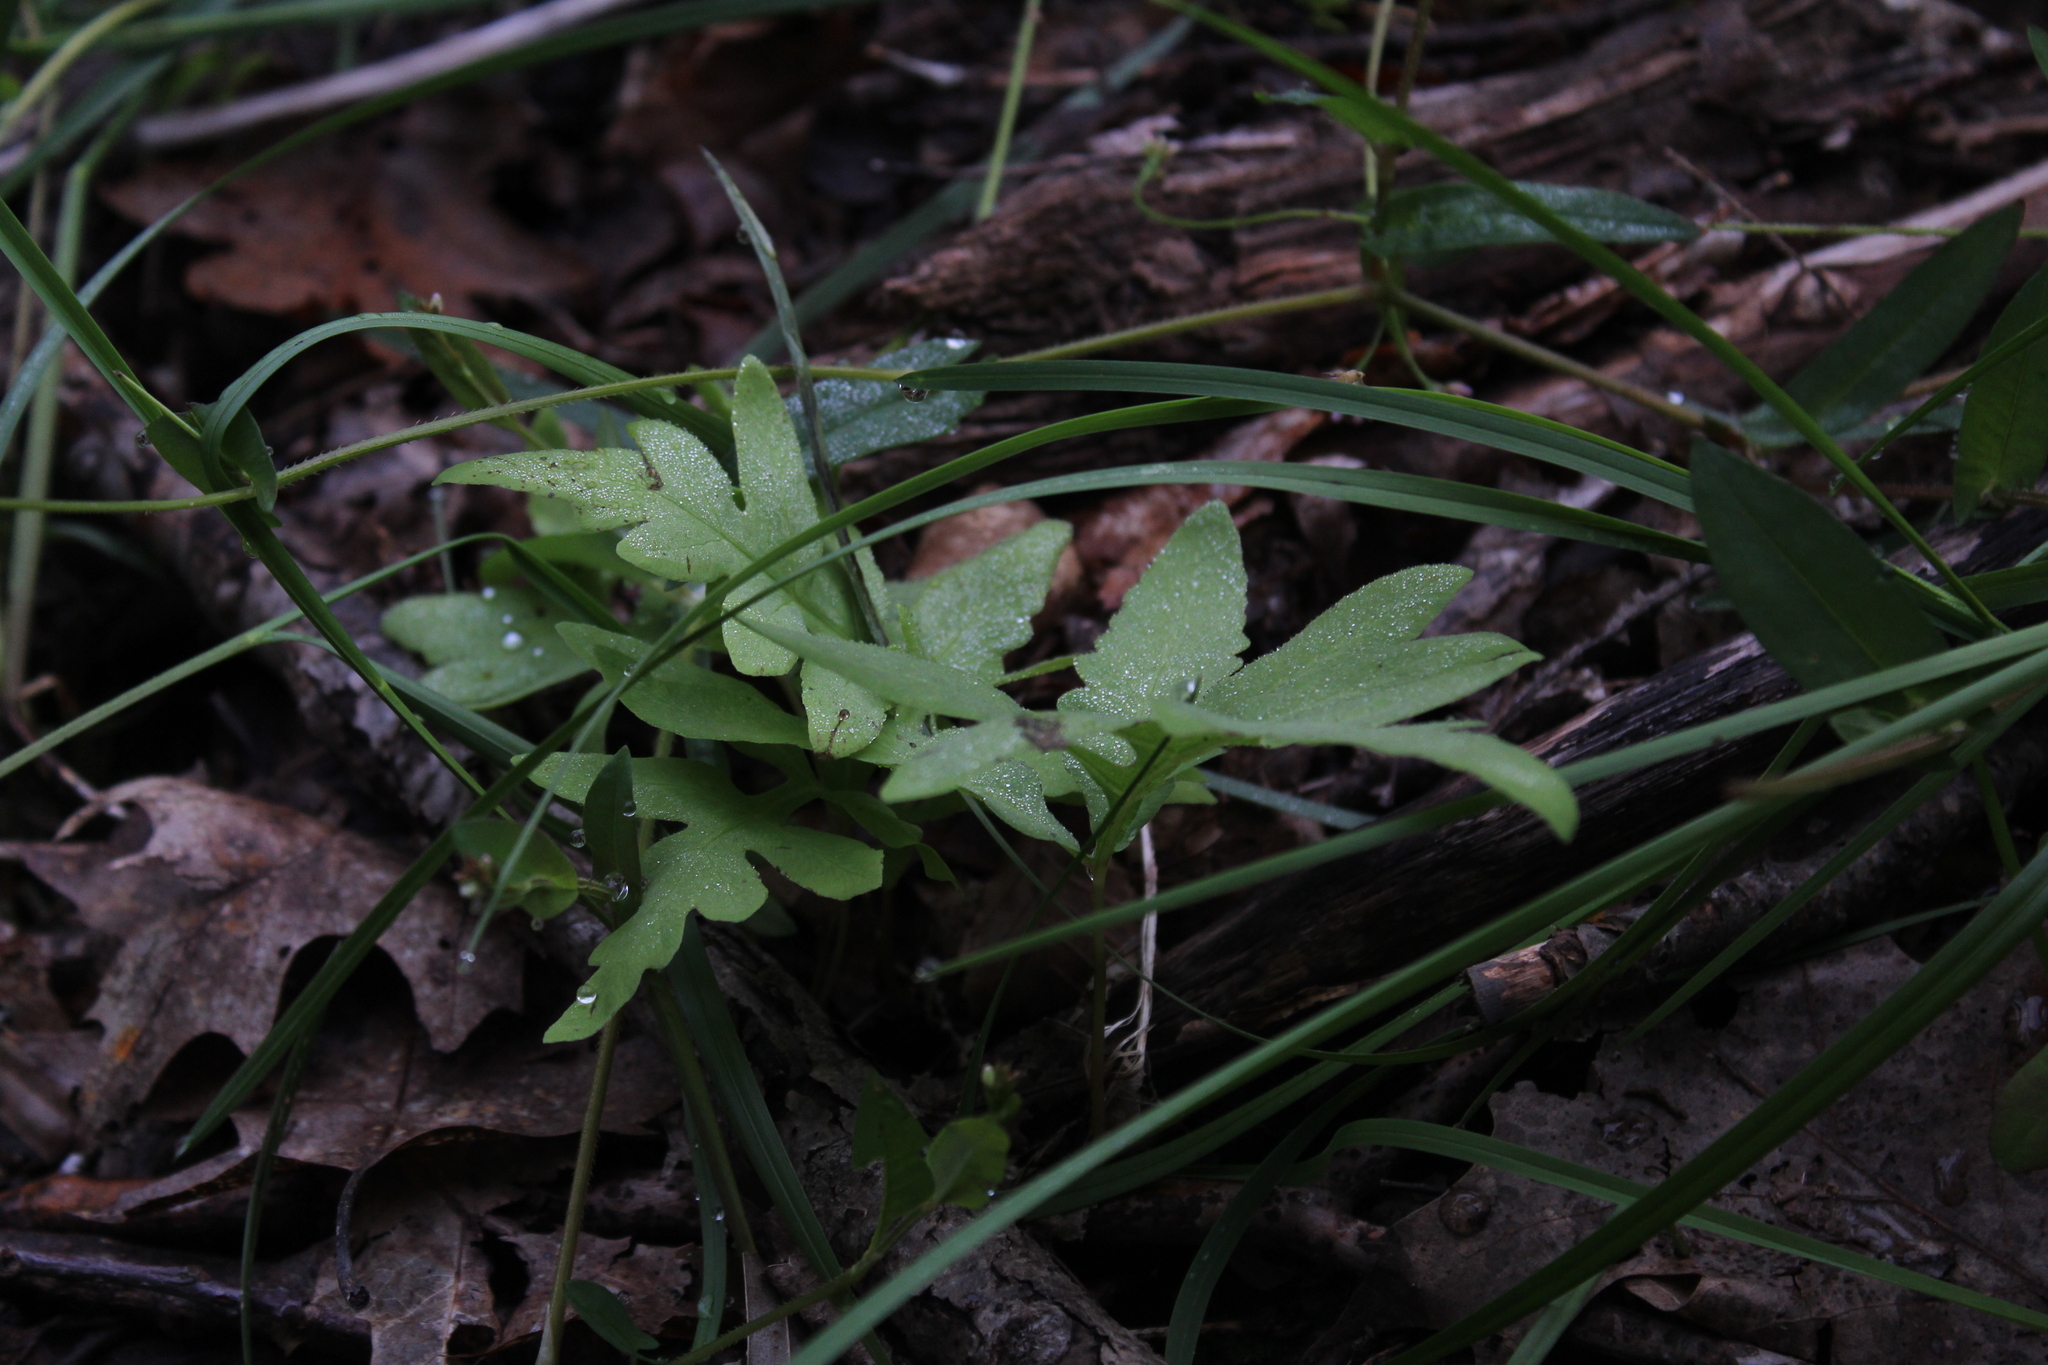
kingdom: Plantae
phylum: Tracheophyta
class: Polypodiopsida
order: Polypodiales
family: Onocleaceae
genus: Onoclea
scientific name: Onoclea sensibilis
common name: Sensitive fern
